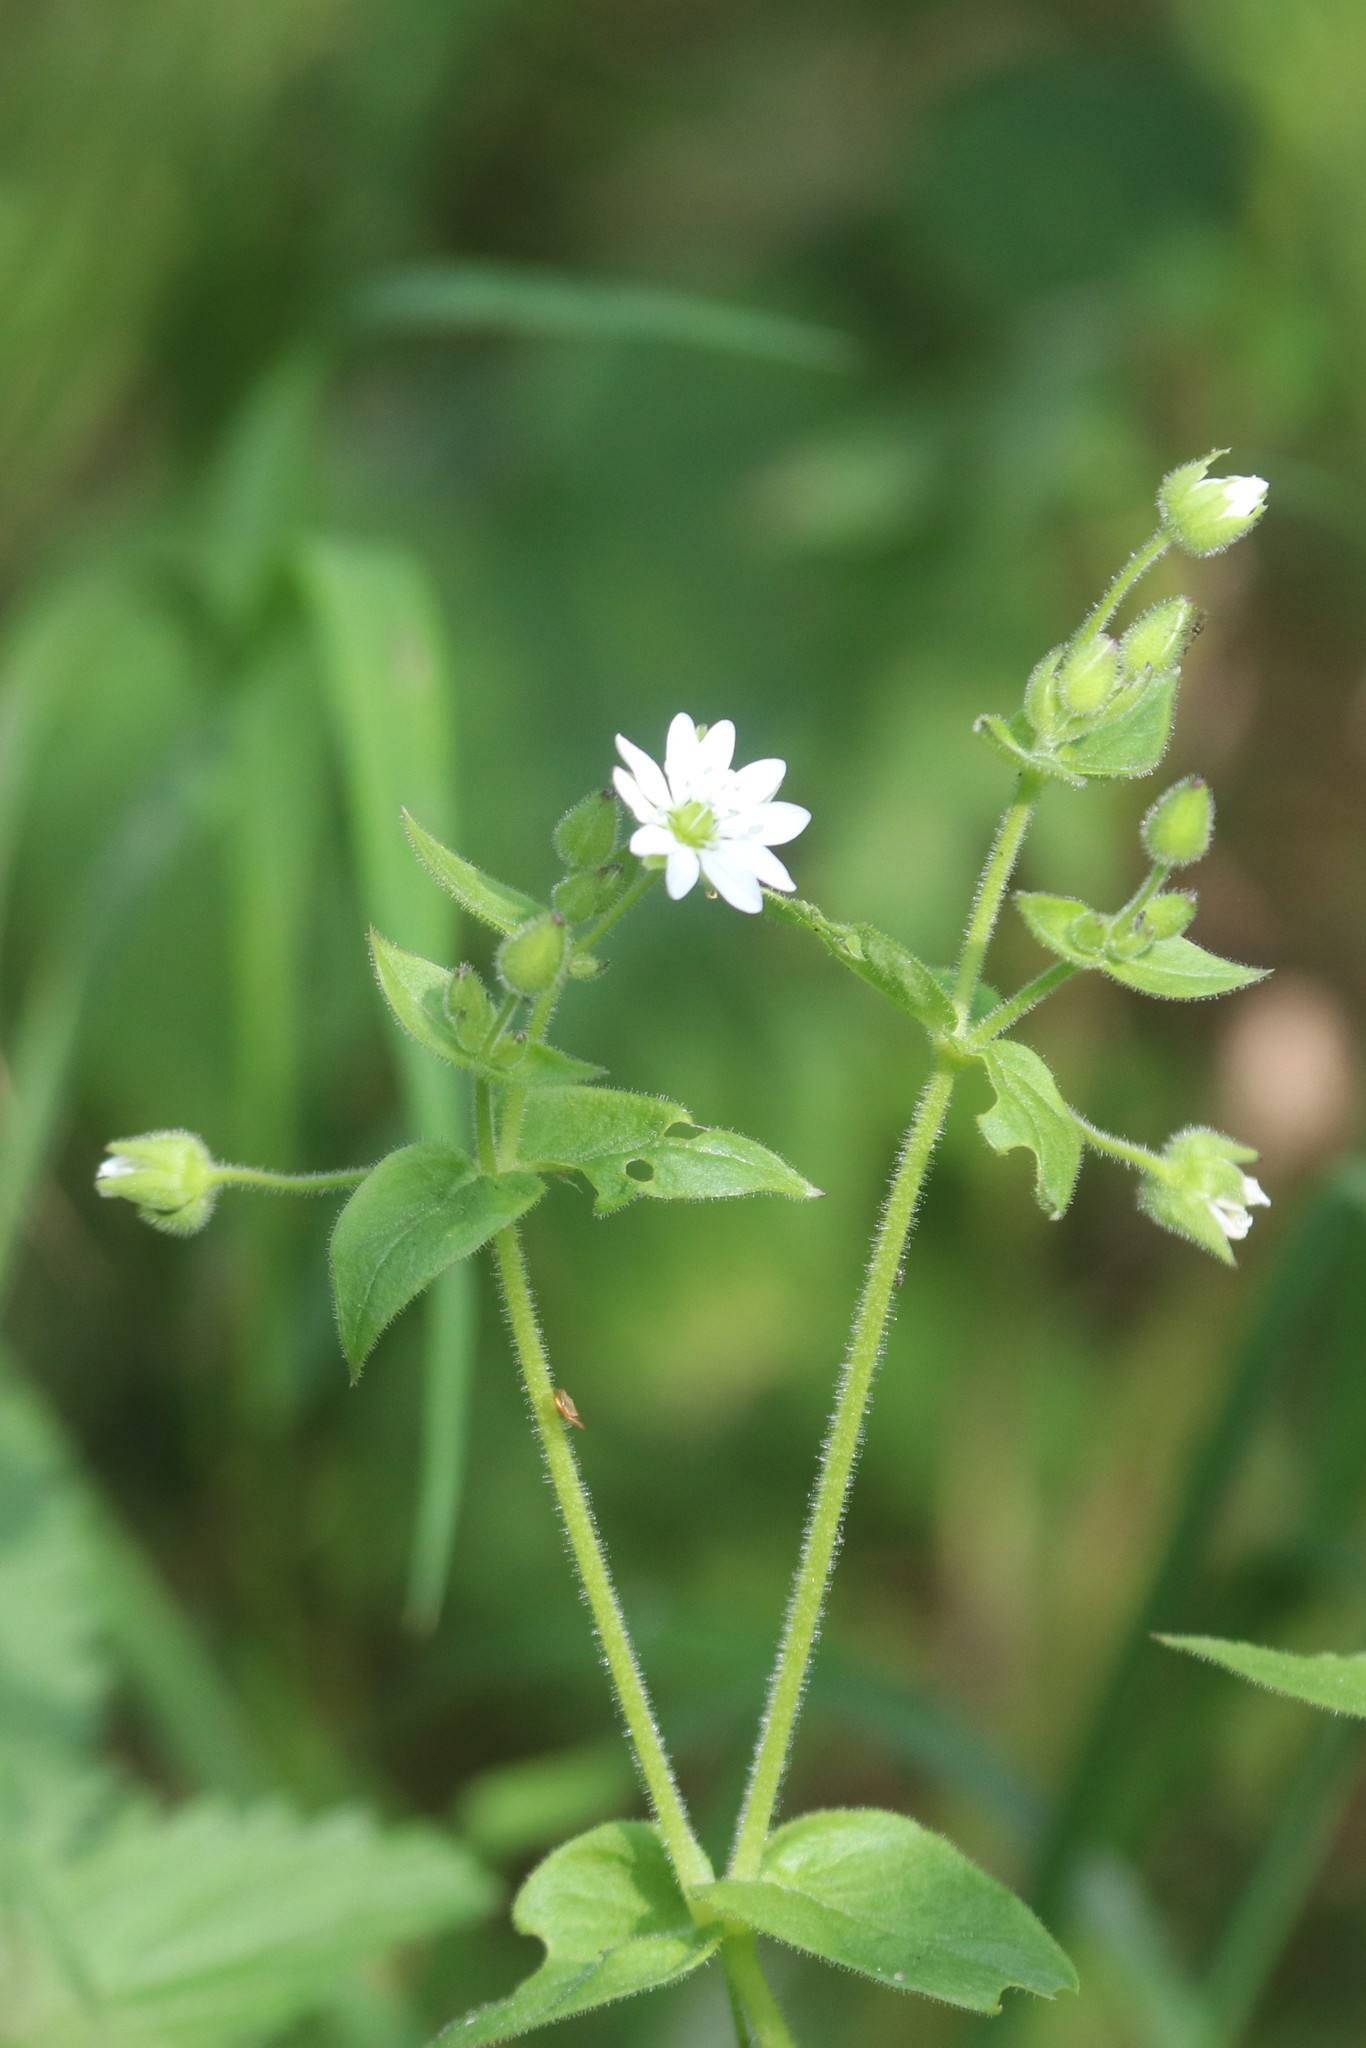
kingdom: Plantae
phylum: Tracheophyta
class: Magnoliopsida
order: Caryophyllales
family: Caryophyllaceae
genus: Stellaria
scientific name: Stellaria aquatica
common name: Water chickweed
